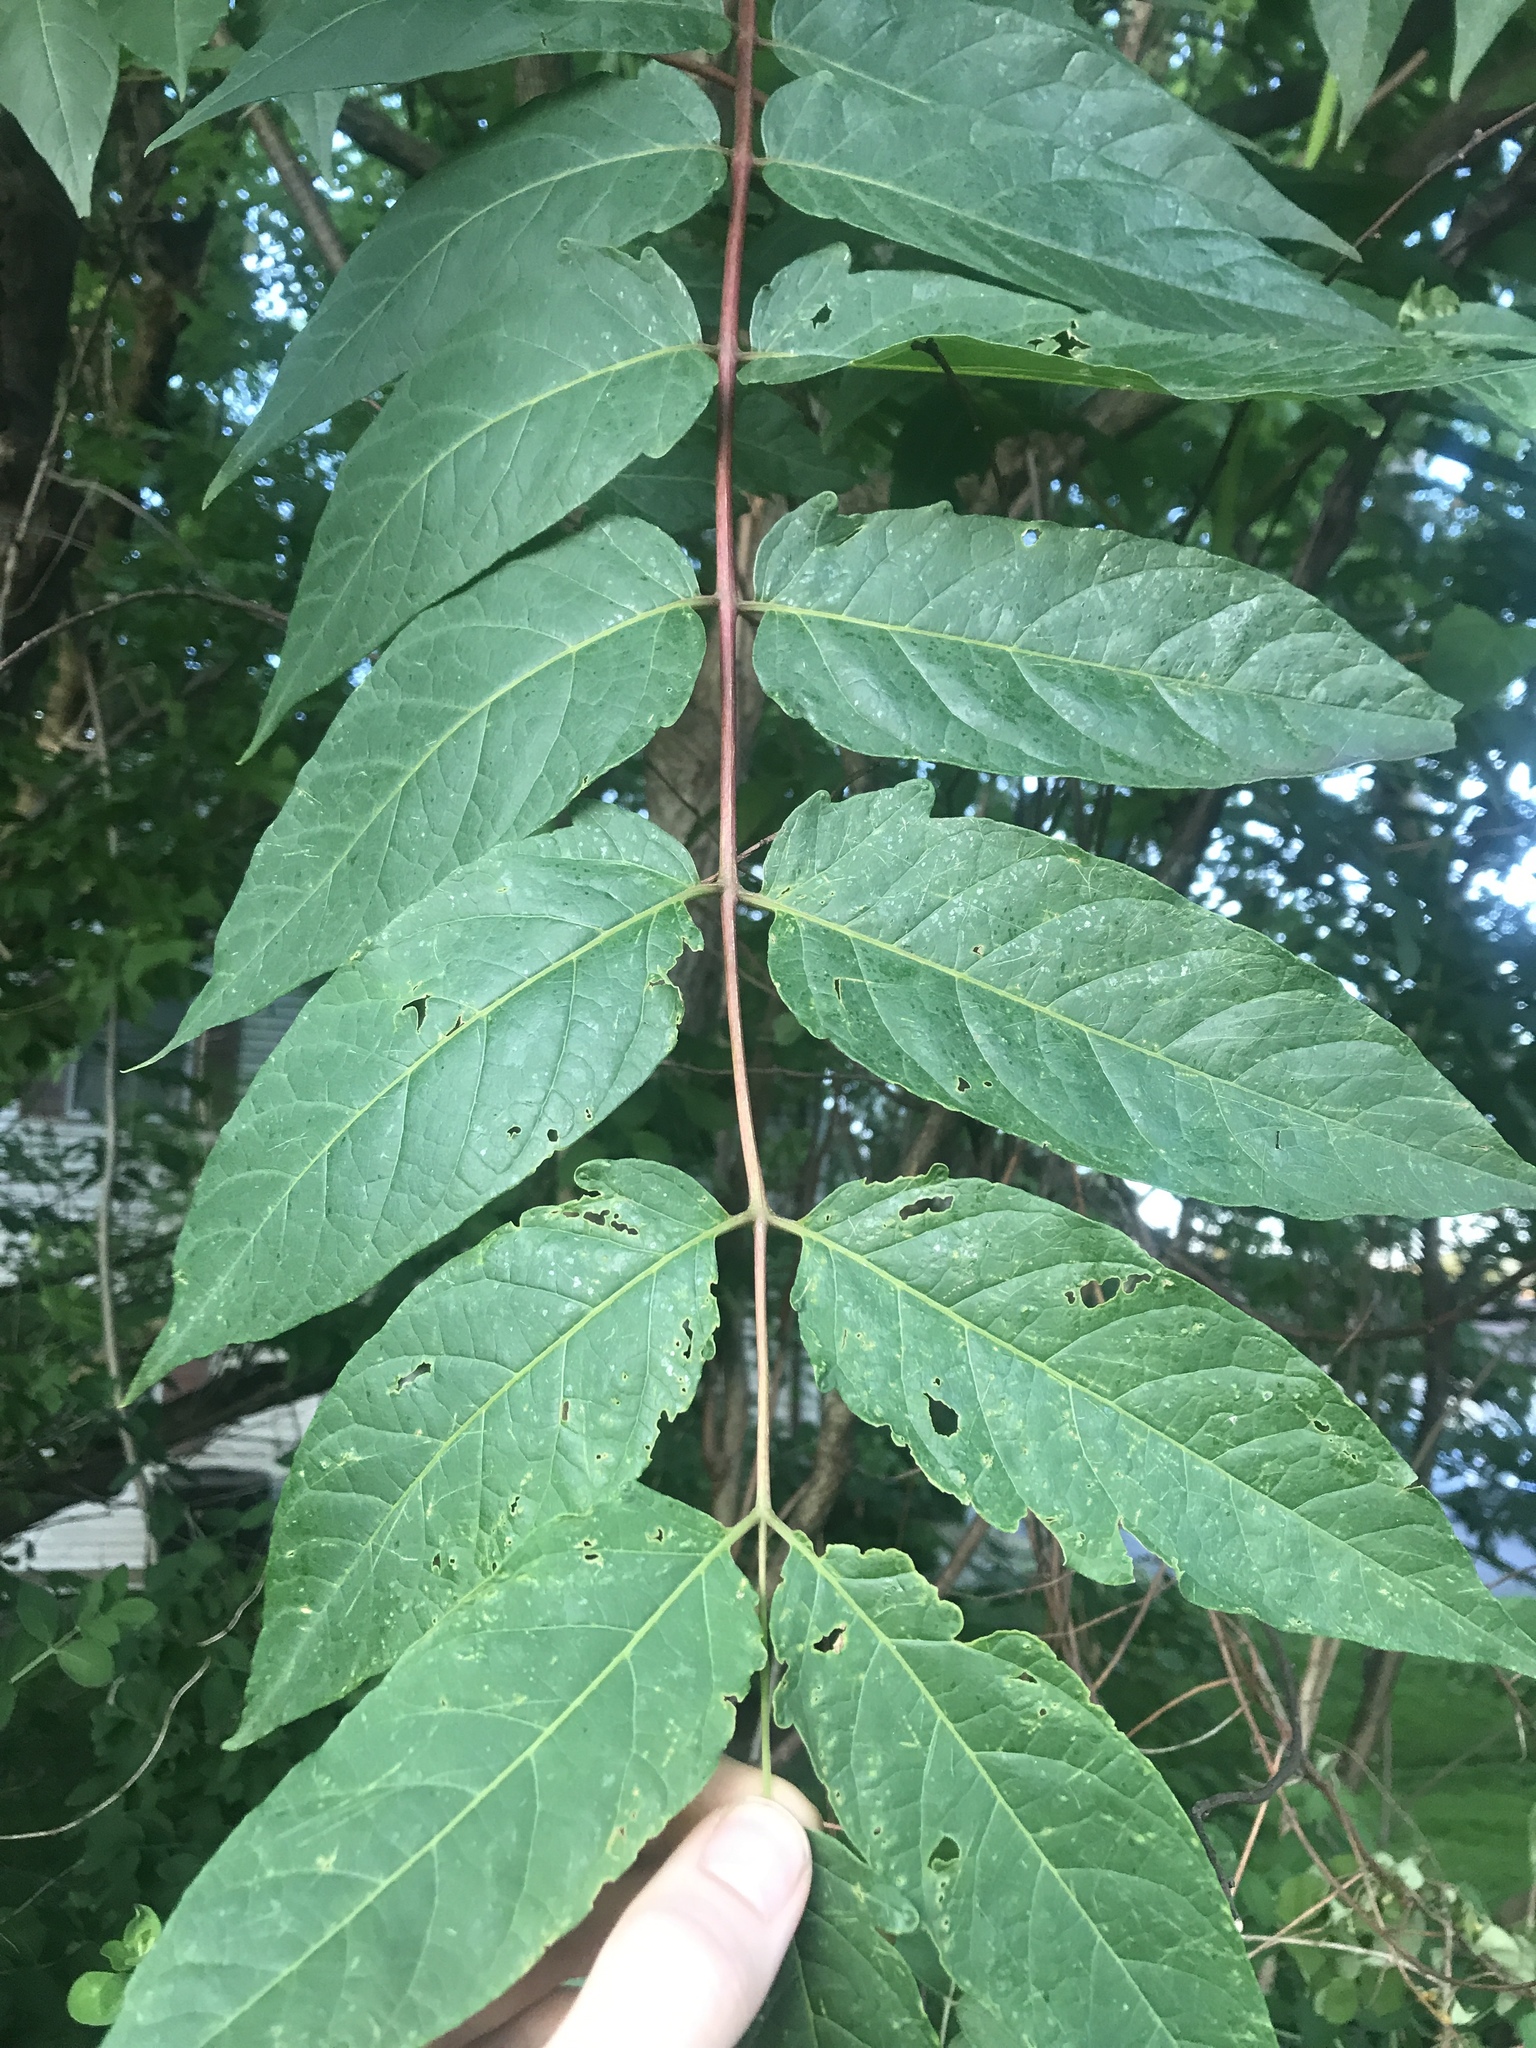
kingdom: Plantae
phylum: Tracheophyta
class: Magnoliopsida
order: Sapindales
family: Simaroubaceae
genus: Ailanthus
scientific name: Ailanthus altissima
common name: Tree-of-heaven
